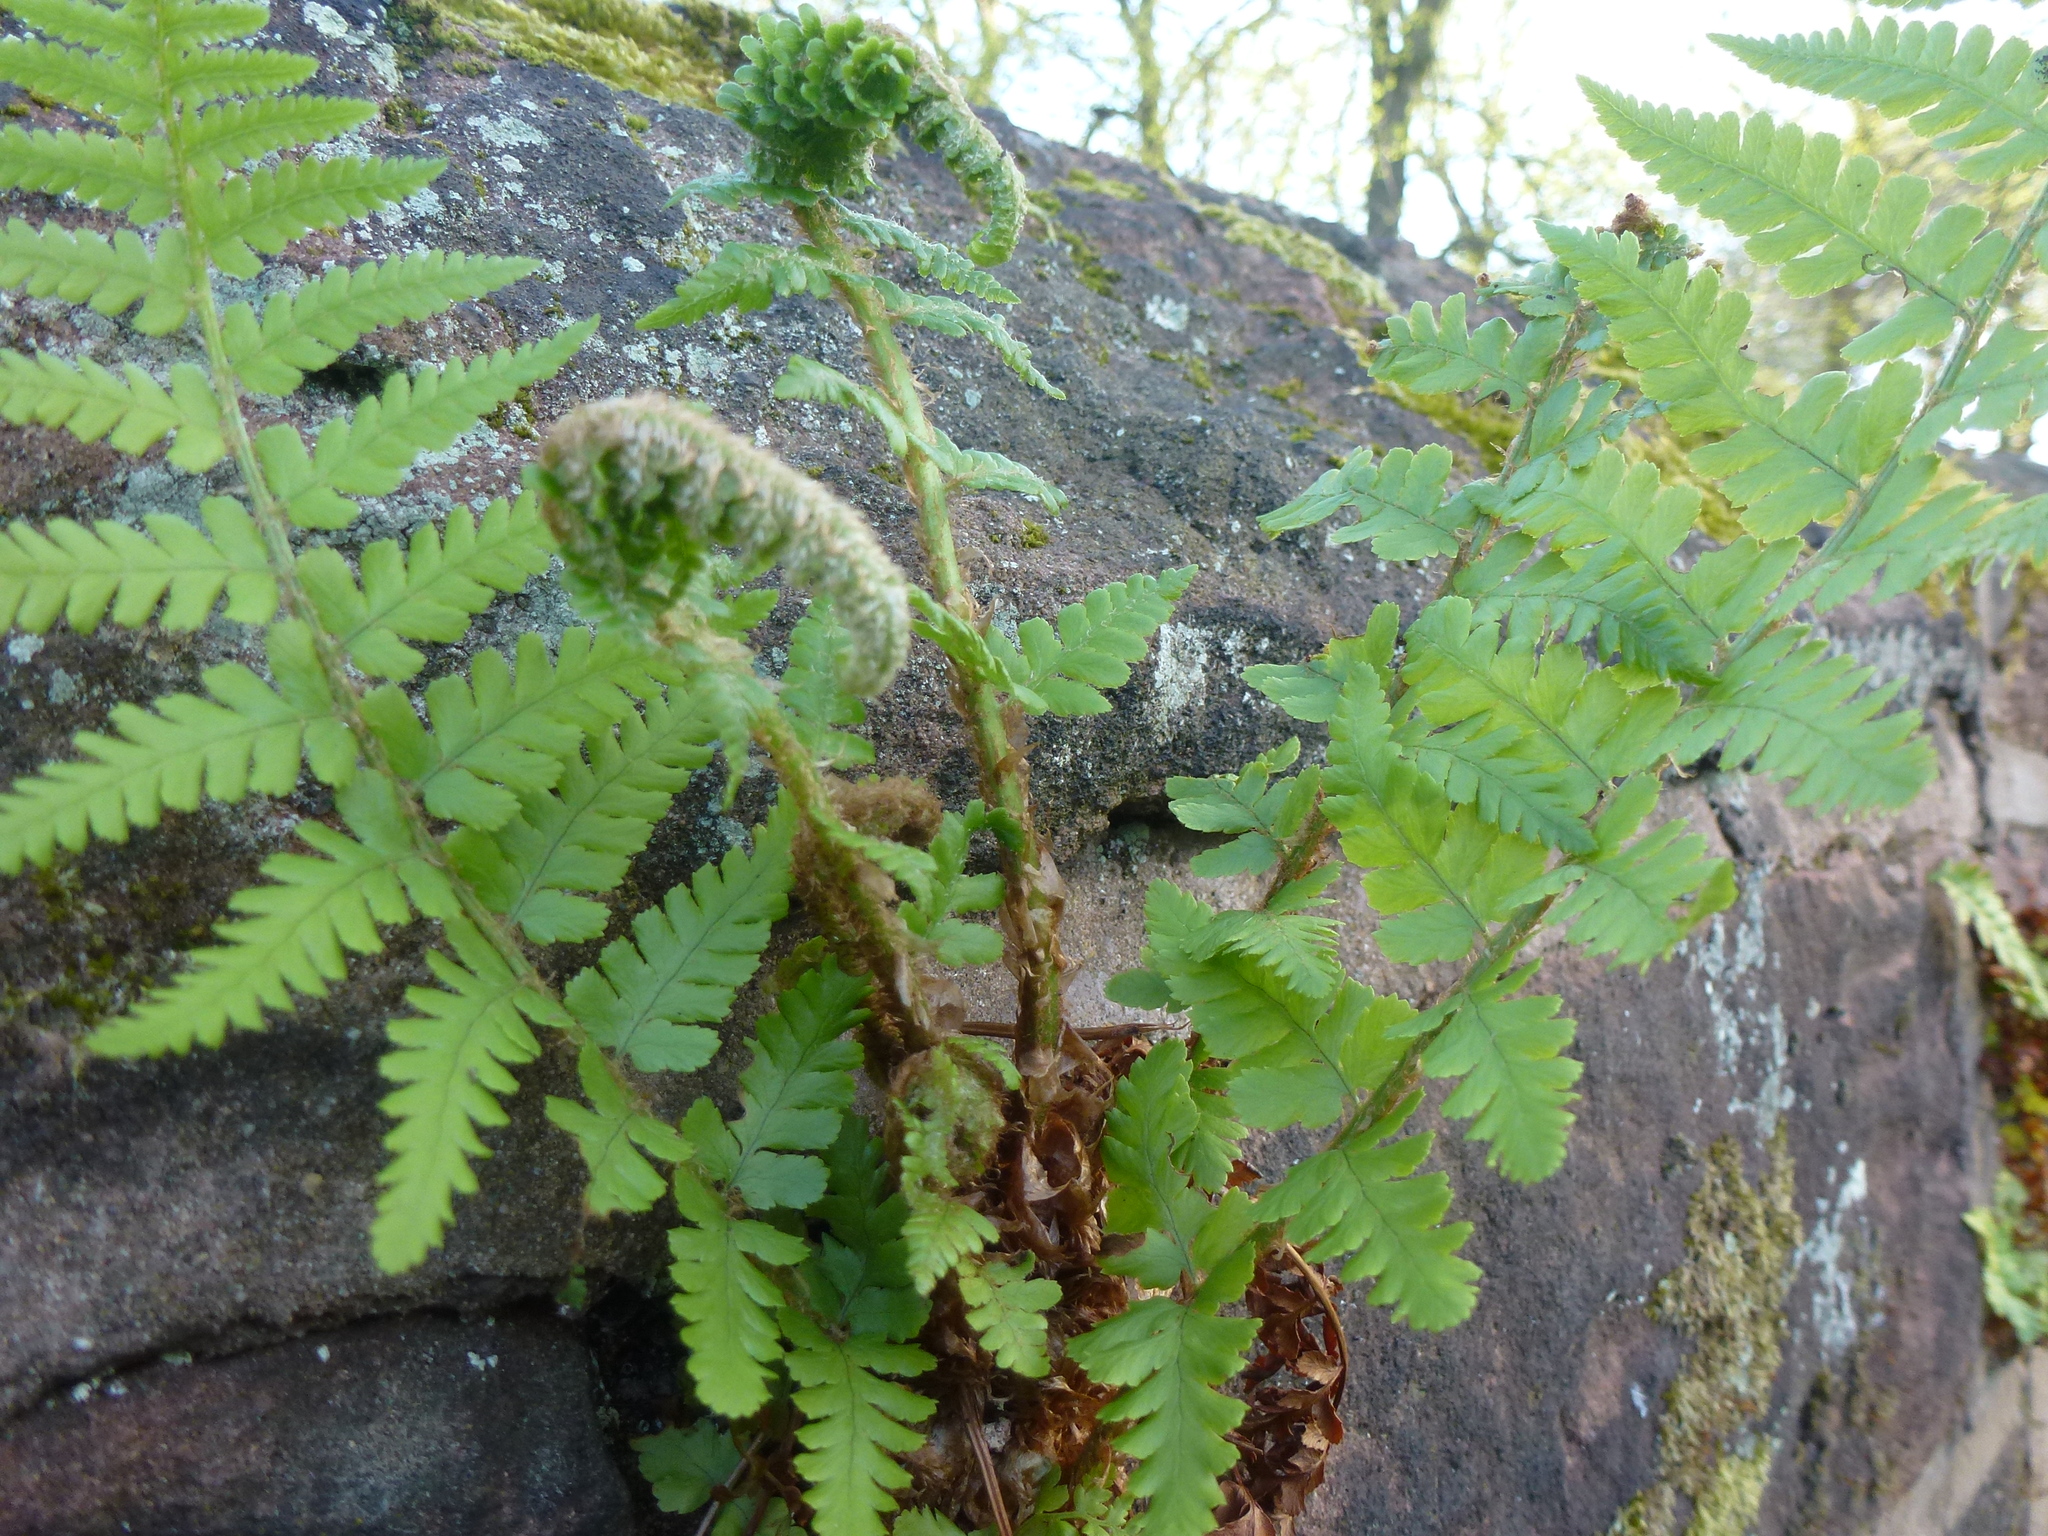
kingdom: Plantae
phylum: Tracheophyta
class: Polypodiopsida
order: Polypodiales
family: Dryopteridaceae
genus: Dryopteris
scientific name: Dryopteris filix-mas
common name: Male fern
